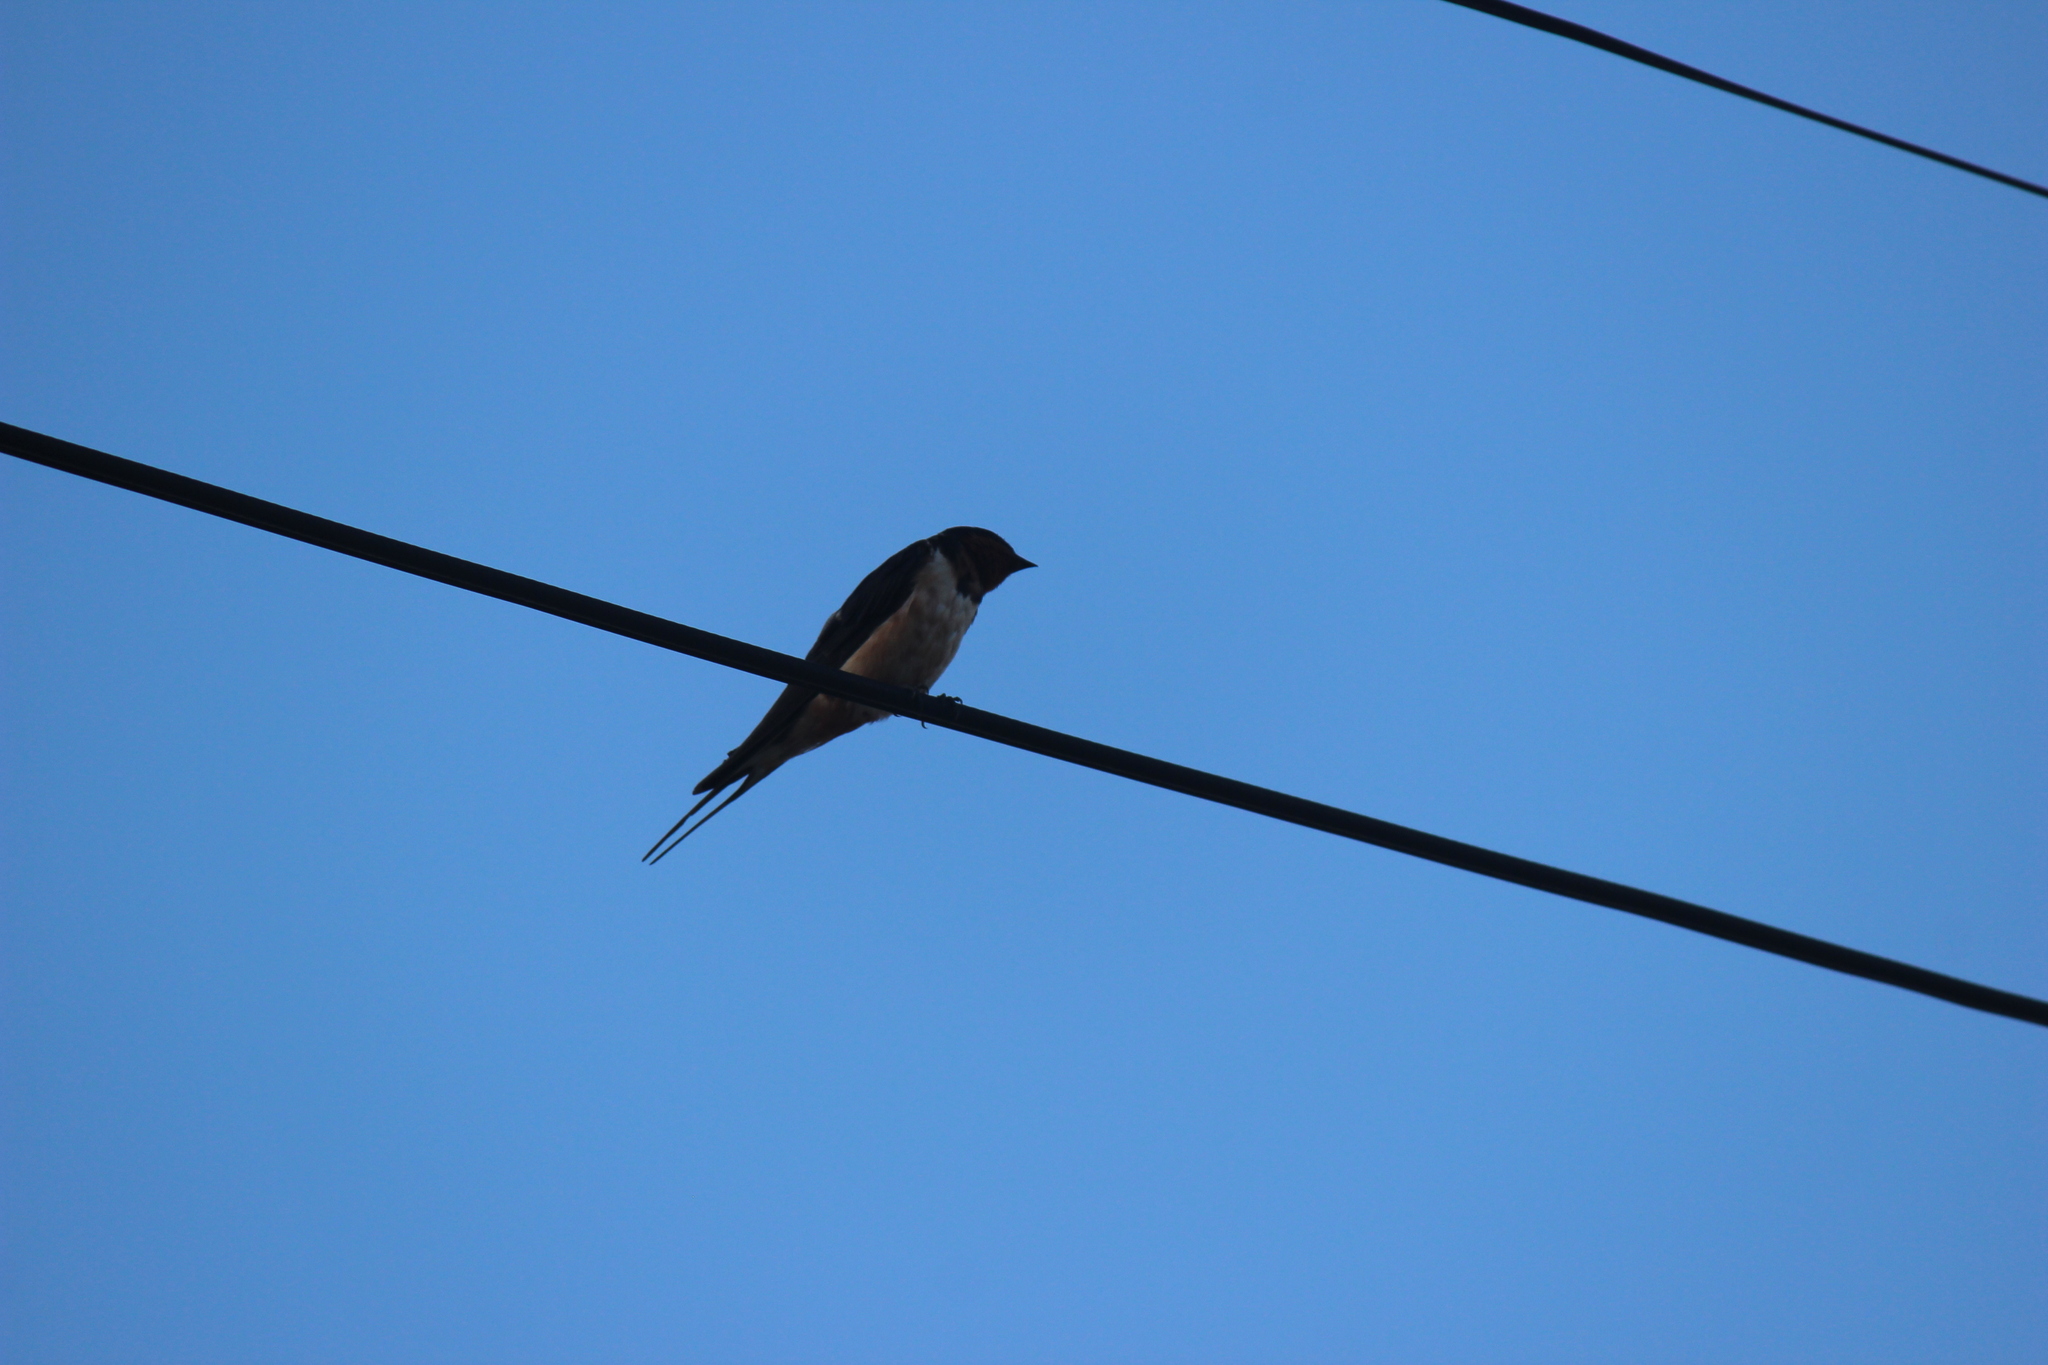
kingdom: Animalia
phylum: Chordata
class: Aves
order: Passeriformes
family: Hirundinidae
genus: Hirundo
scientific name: Hirundo rustica
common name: Barn swallow
